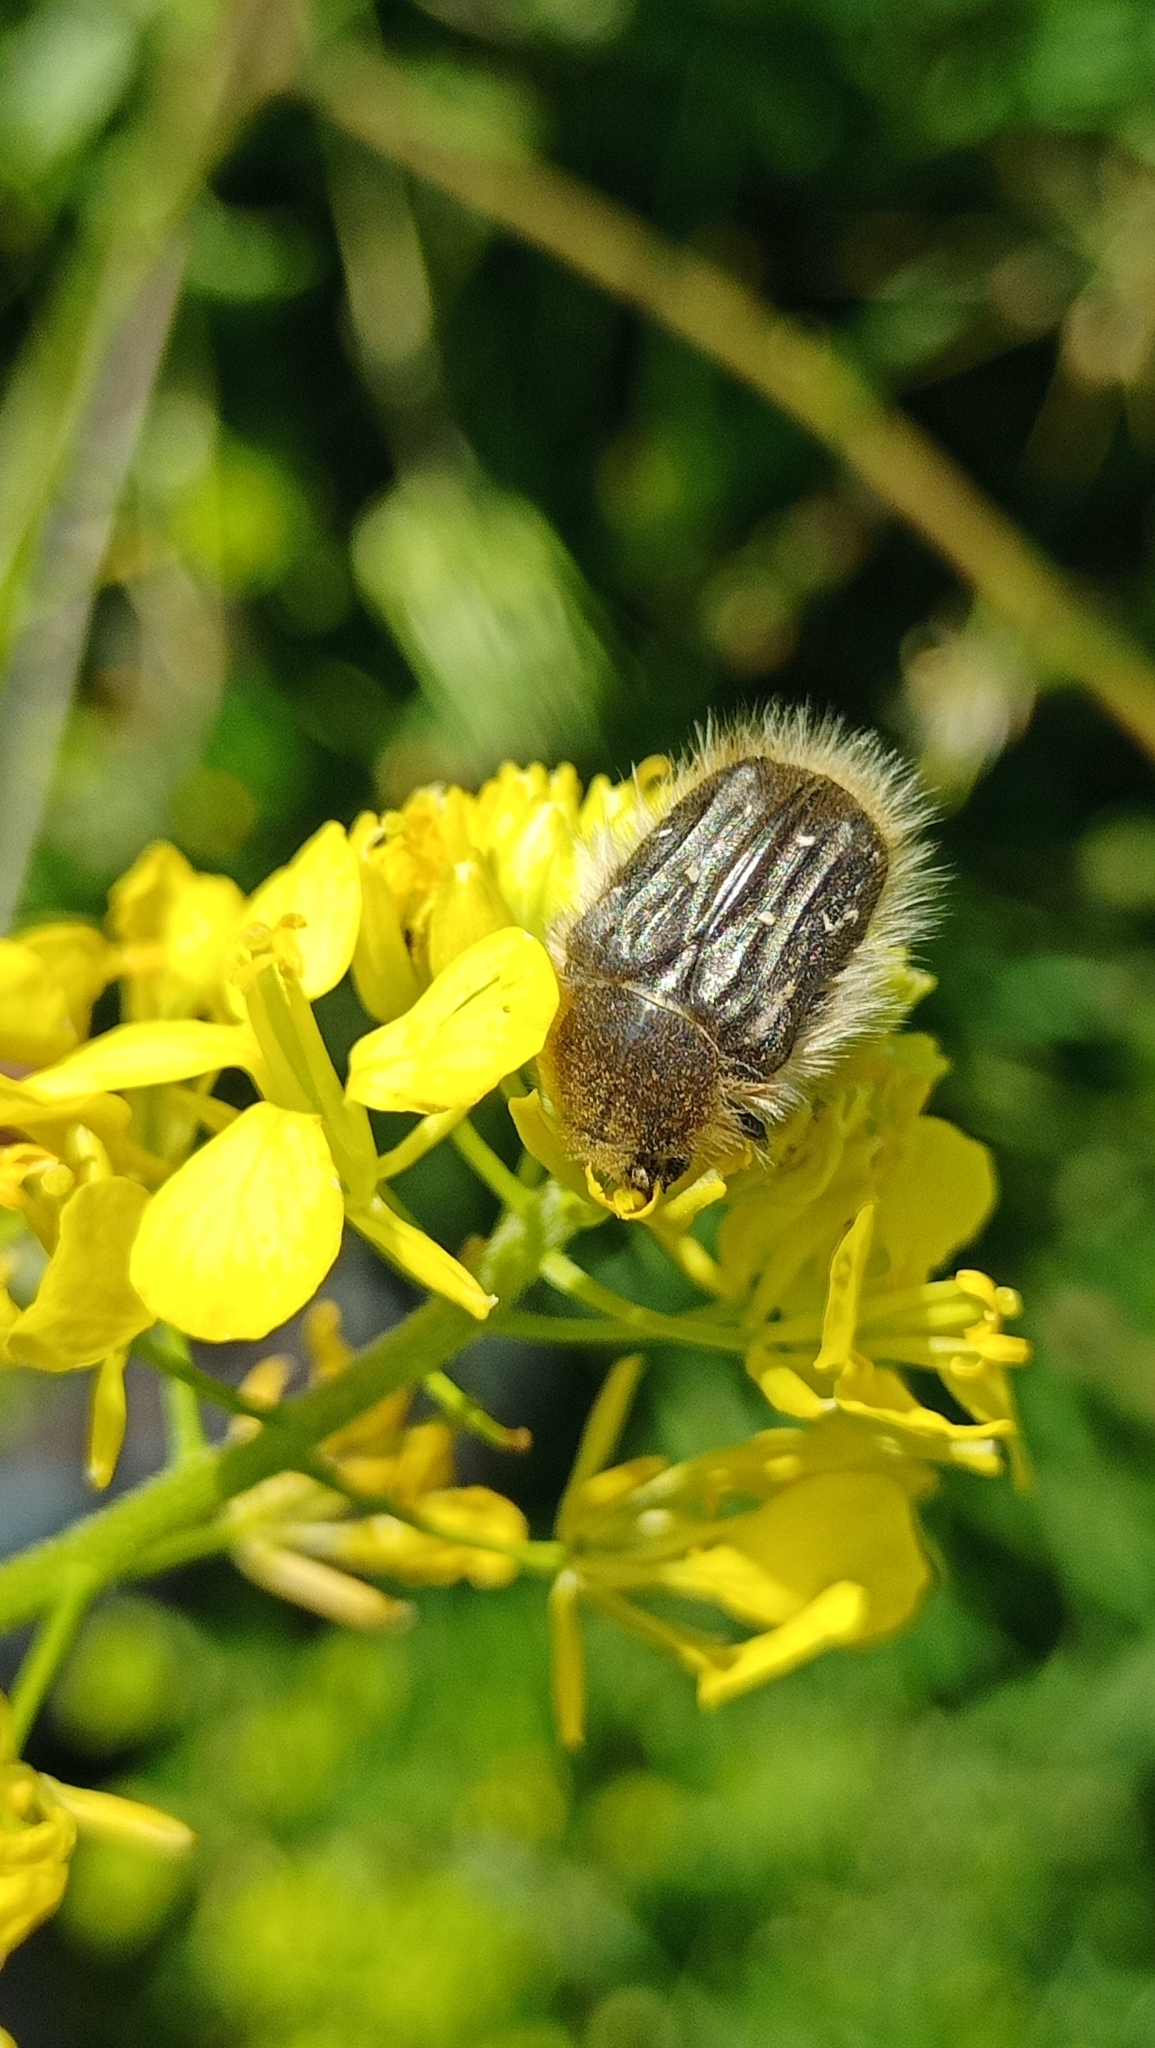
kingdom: Animalia
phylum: Arthropoda
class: Insecta
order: Coleoptera
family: Scarabaeidae
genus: Tropinota
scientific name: Tropinota hirta
